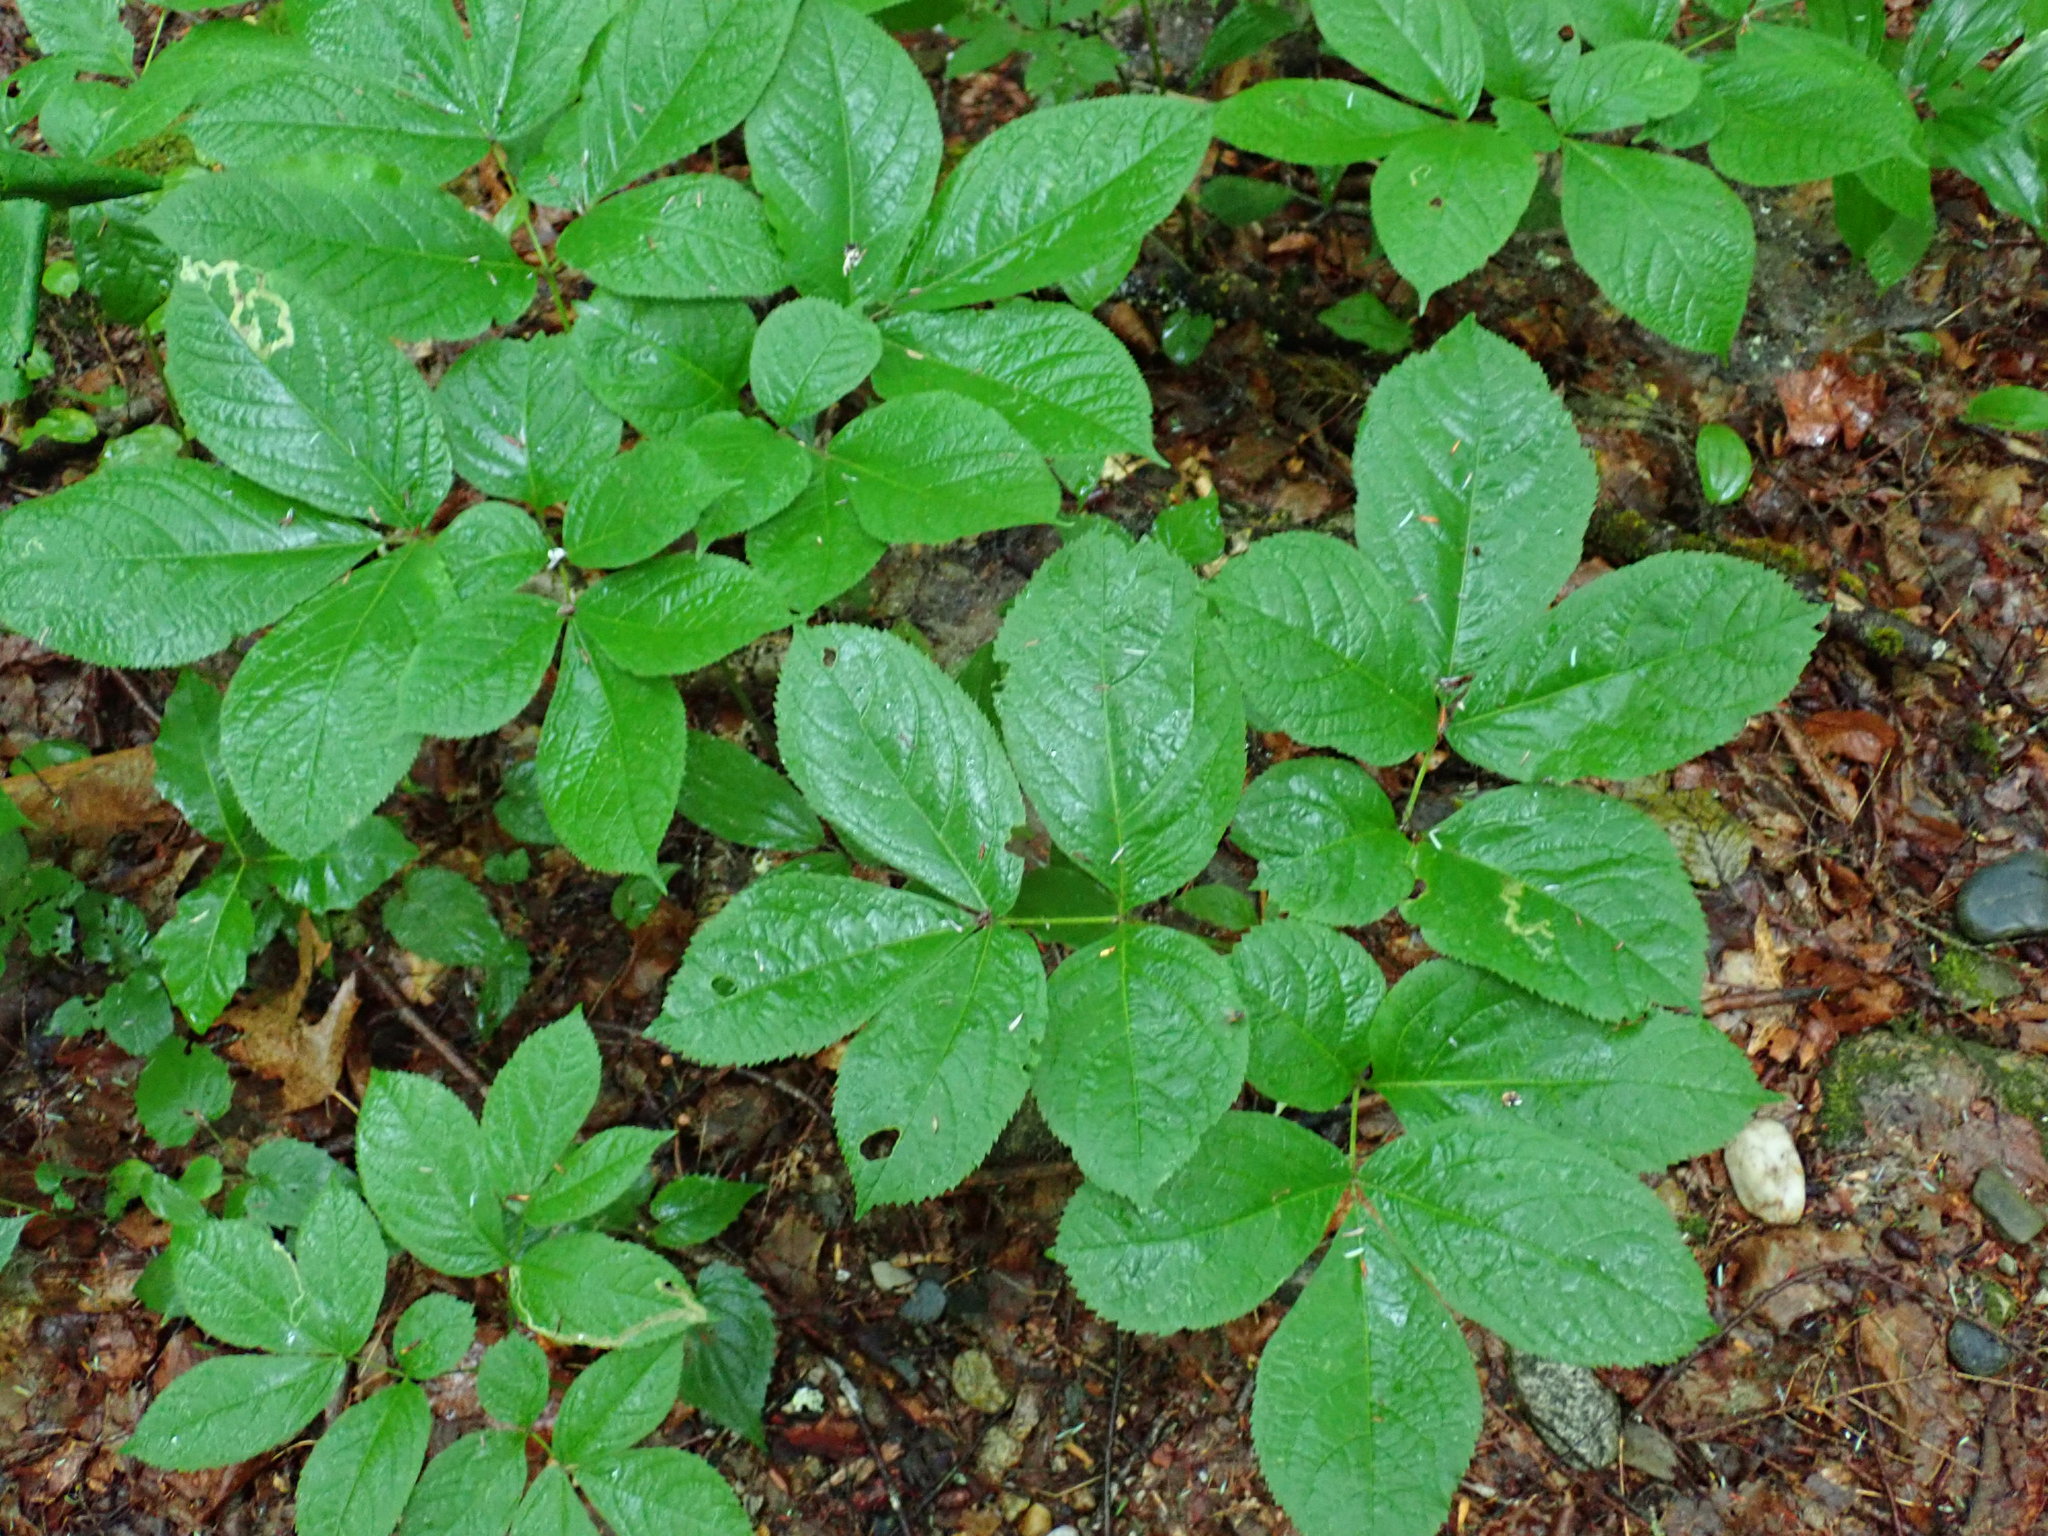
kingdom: Plantae
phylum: Tracheophyta
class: Magnoliopsida
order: Apiales
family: Araliaceae
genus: Aralia
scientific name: Aralia nudicaulis
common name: Wild sarsaparilla
